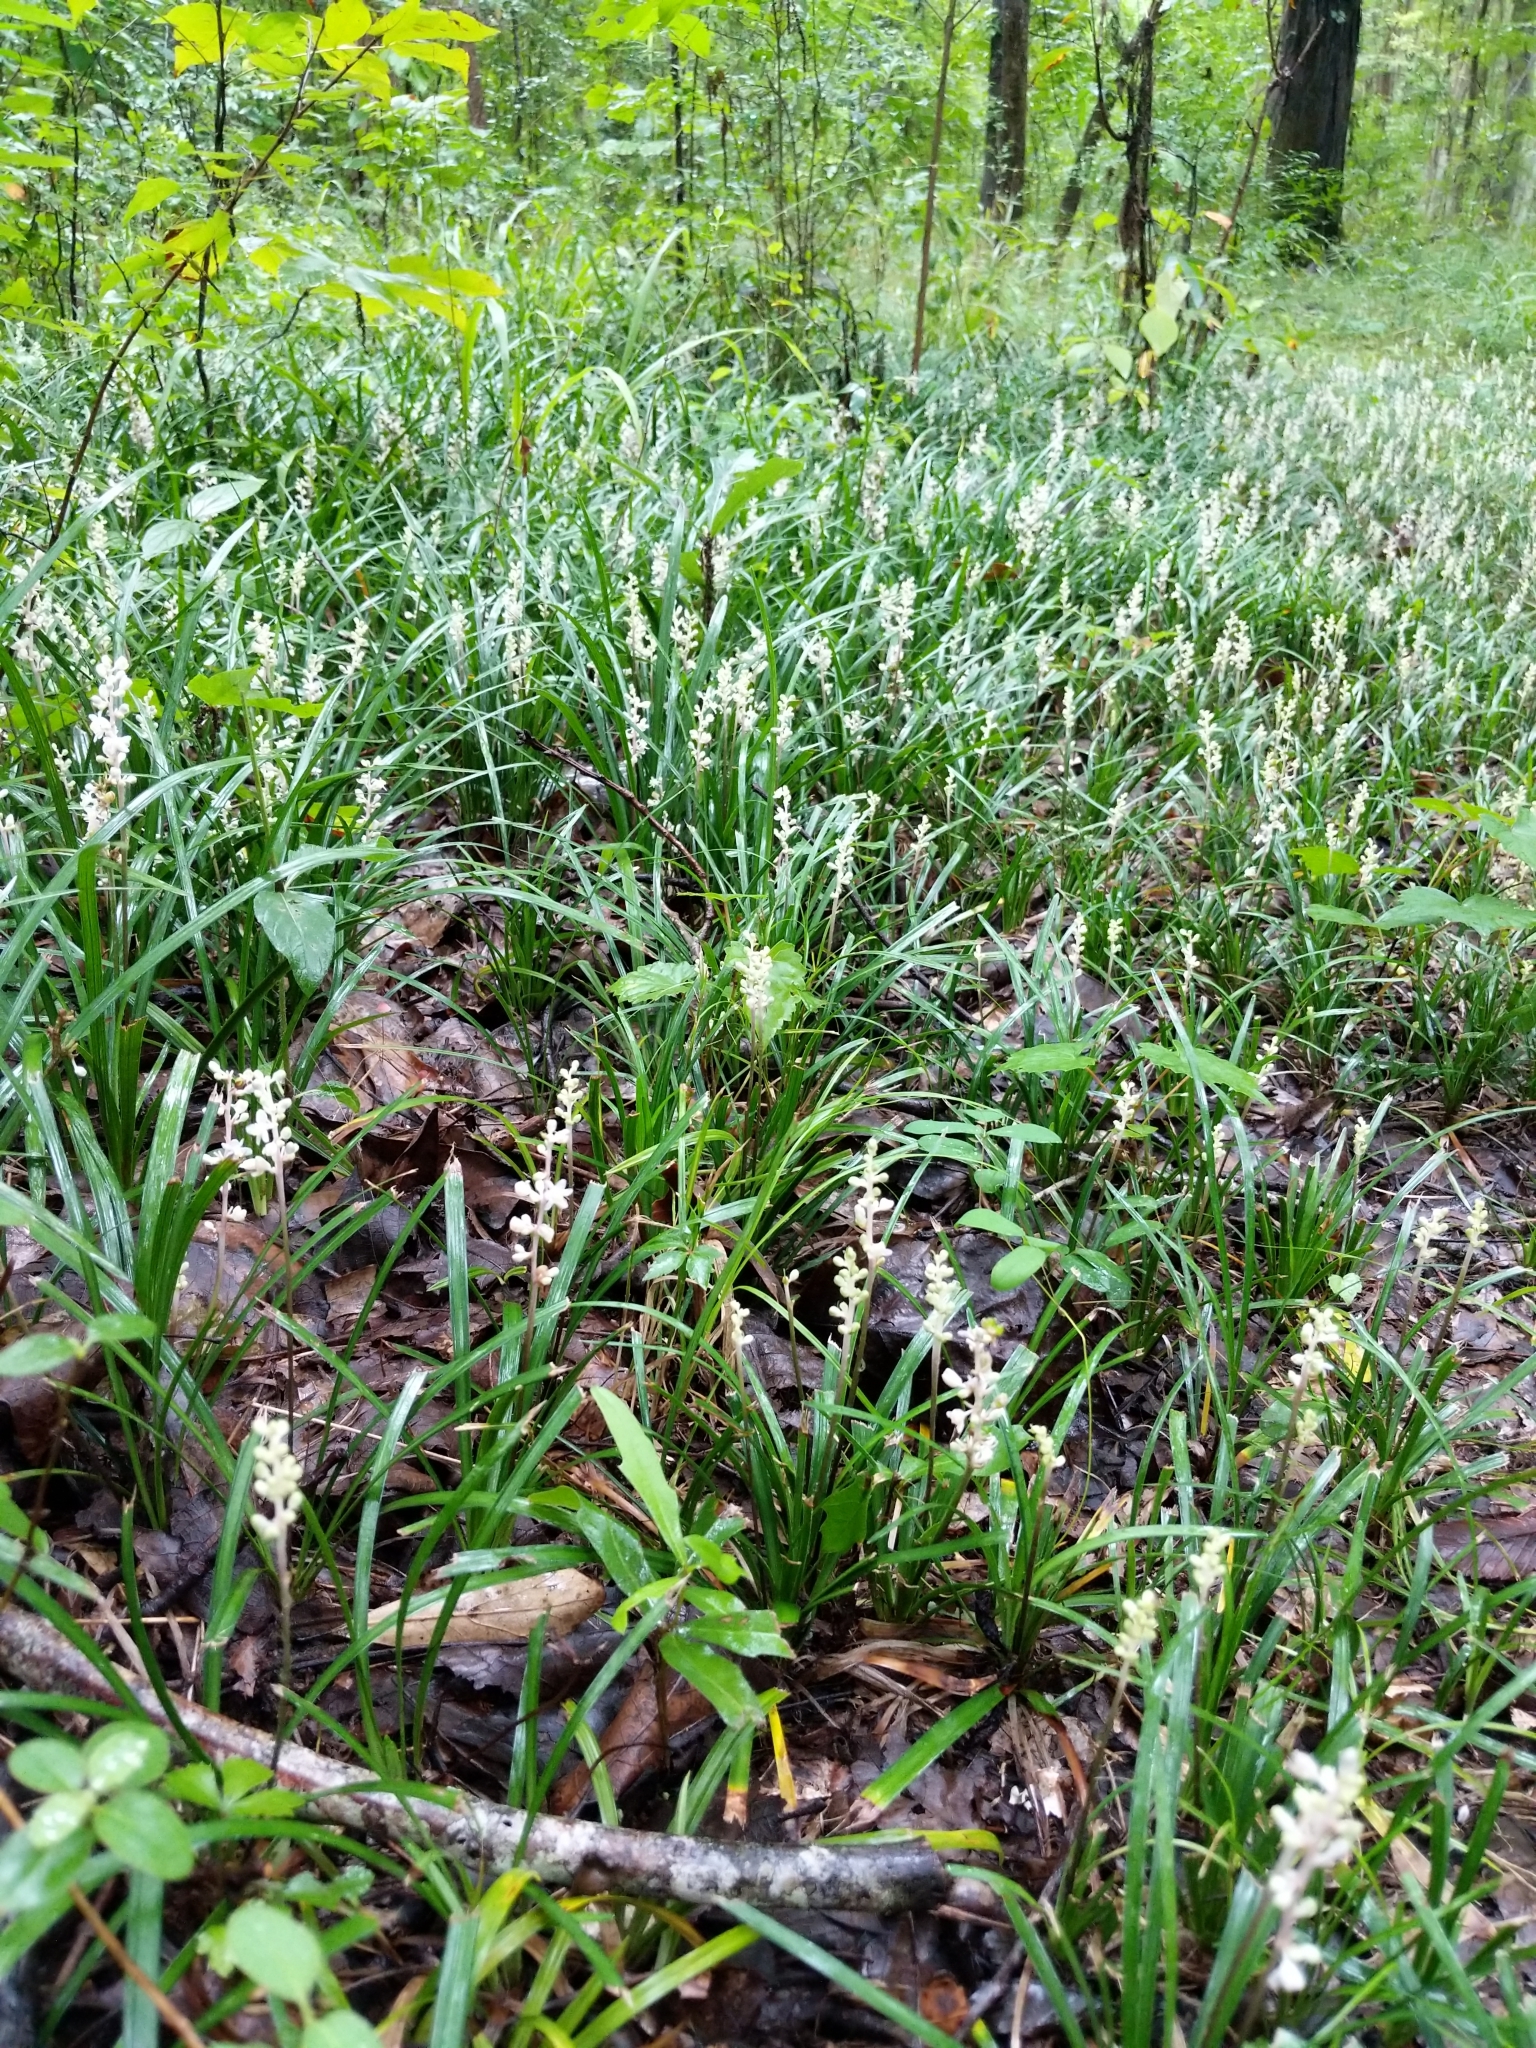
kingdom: Plantae
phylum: Tracheophyta
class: Liliopsida
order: Asparagales
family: Asparagaceae
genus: Liriope
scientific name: Liriope spicata
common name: Creeping liriope
